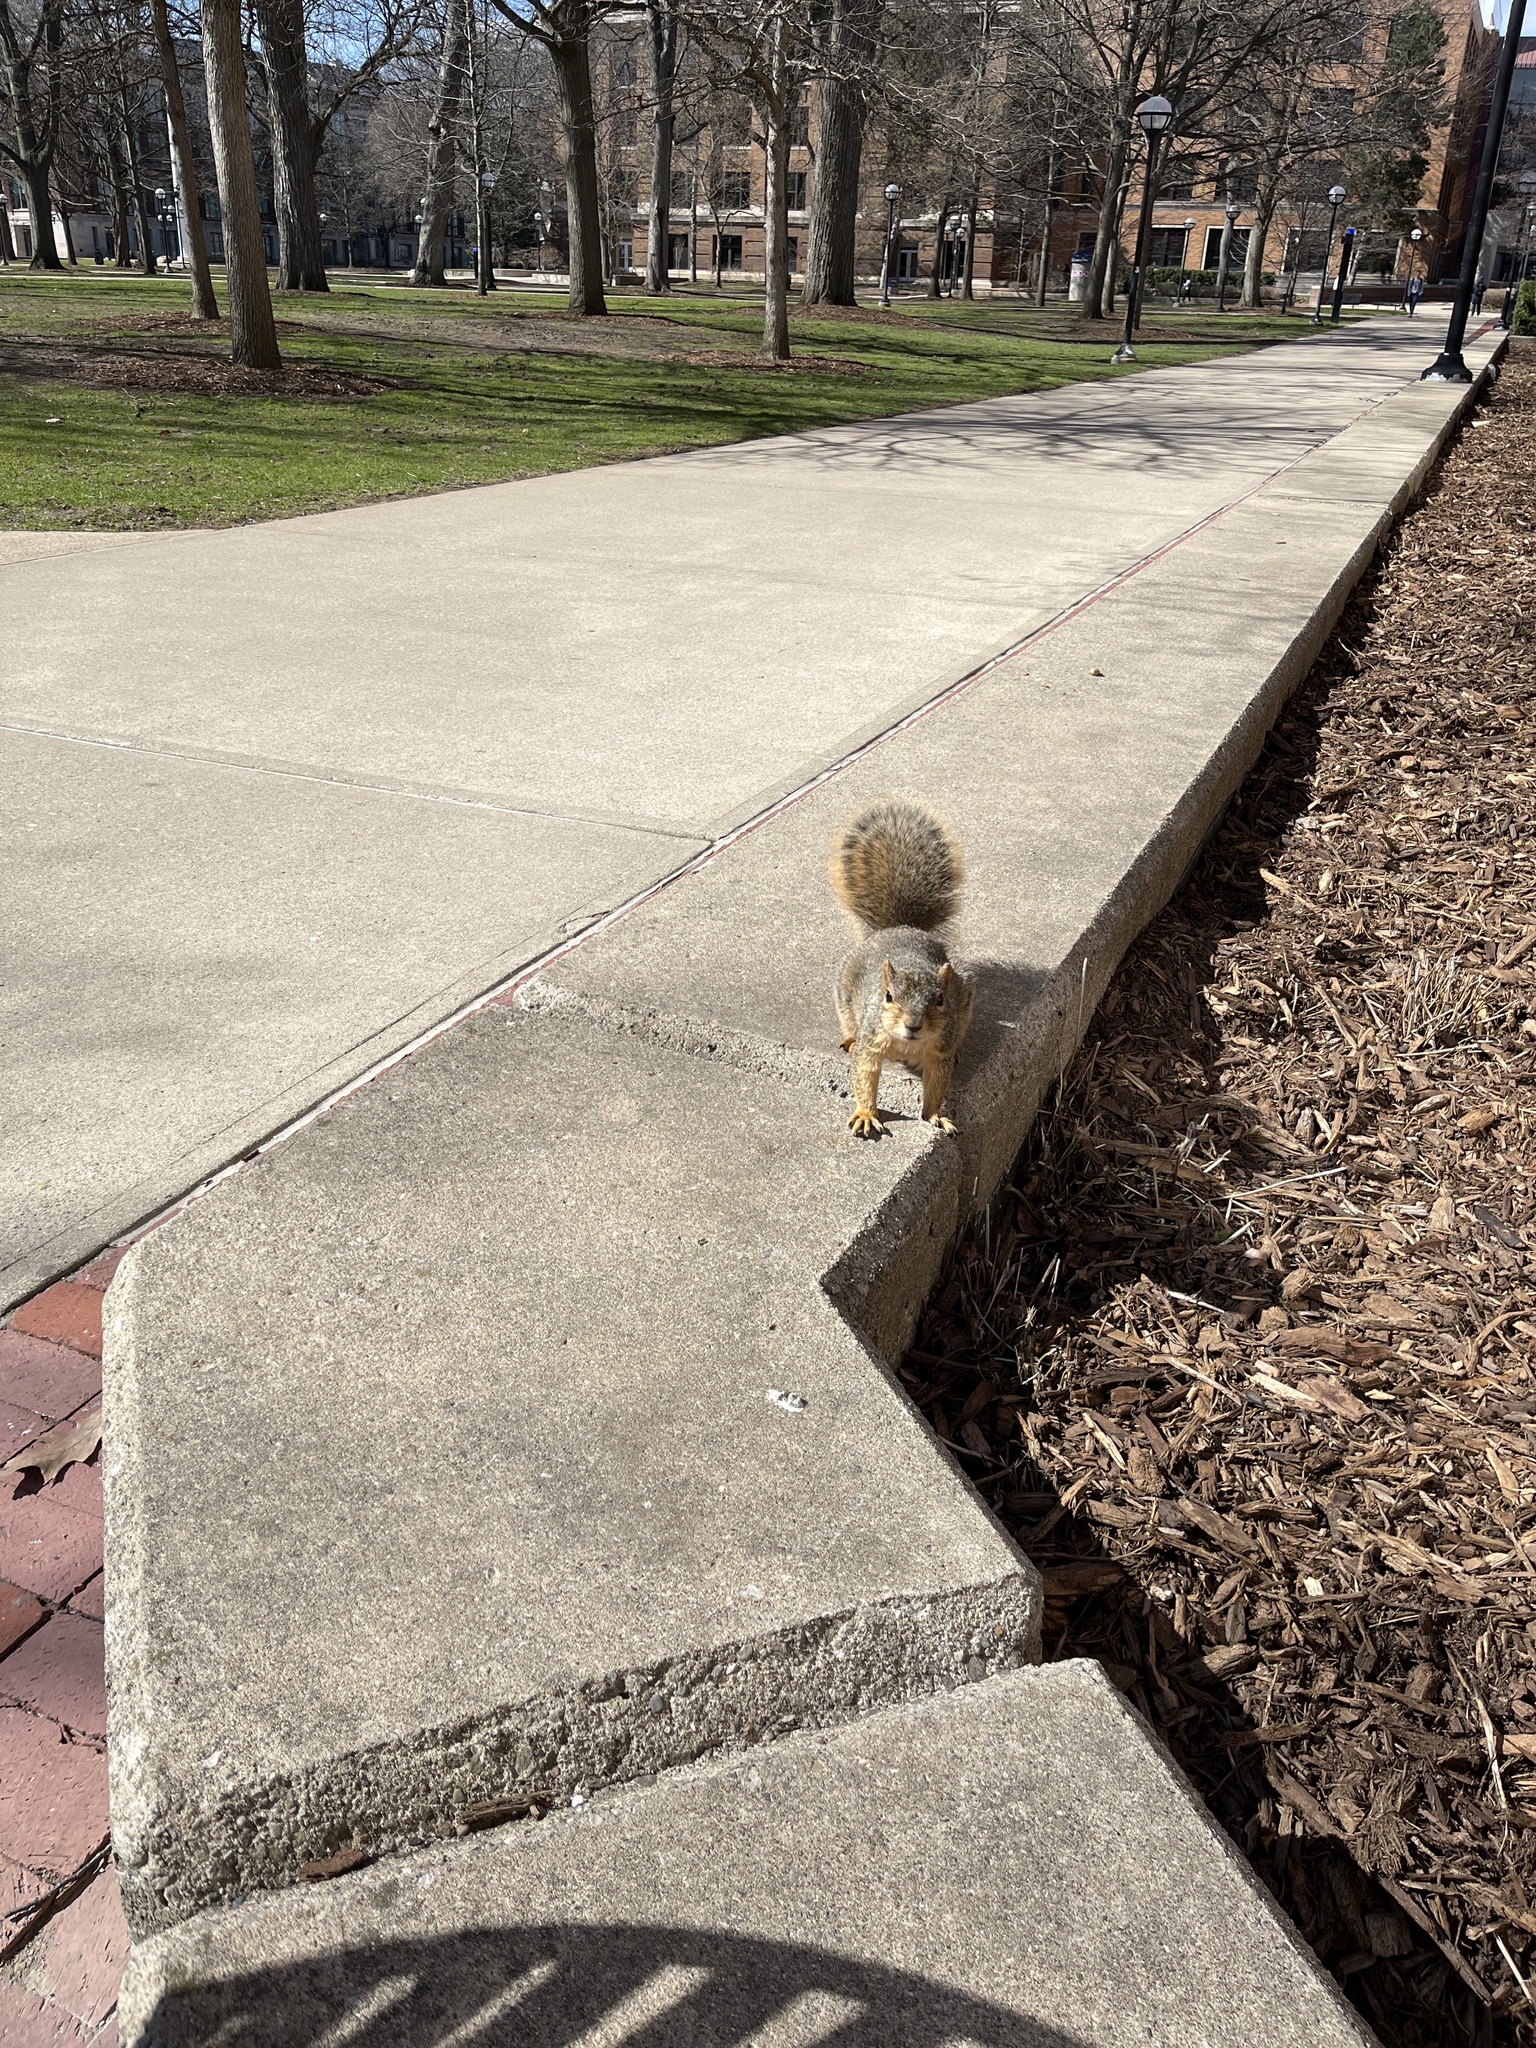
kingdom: Animalia
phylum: Chordata
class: Mammalia
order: Rodentia
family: Sciuridae
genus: Sciurus
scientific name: Sciurus niger
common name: Fox squirrel
